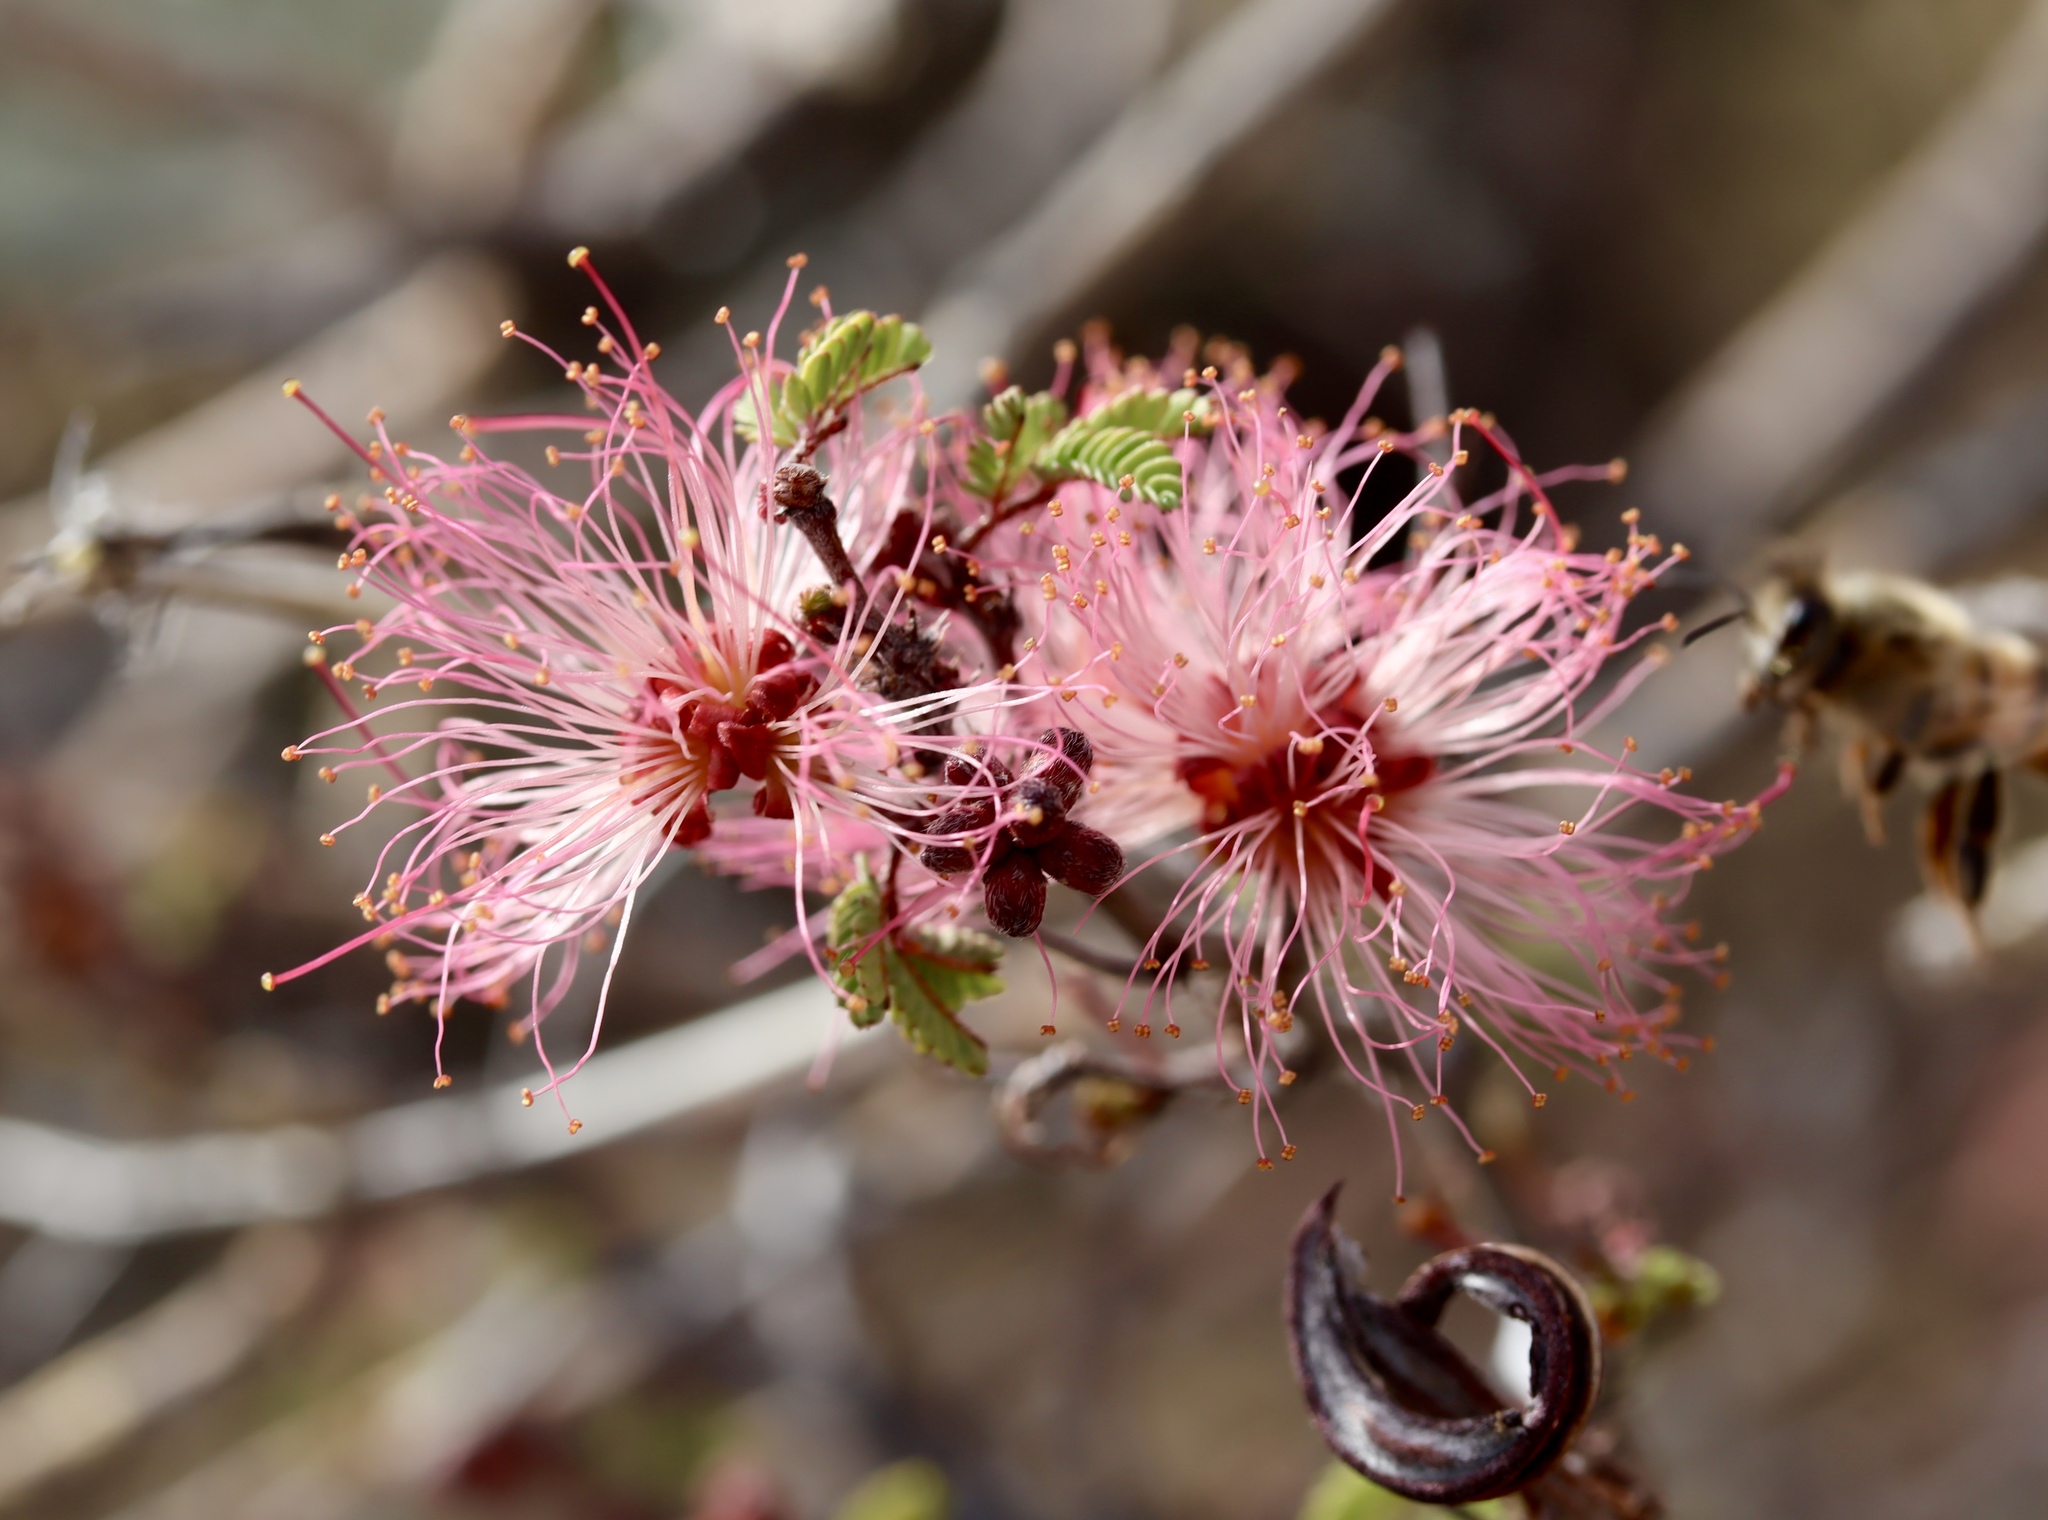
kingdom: Plantae
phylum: Tracheophyta
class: Magnoliopsida
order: Fabales
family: Fabaceae
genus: Calliandra
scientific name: Calliandra eriophylla
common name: Fairy-duster
